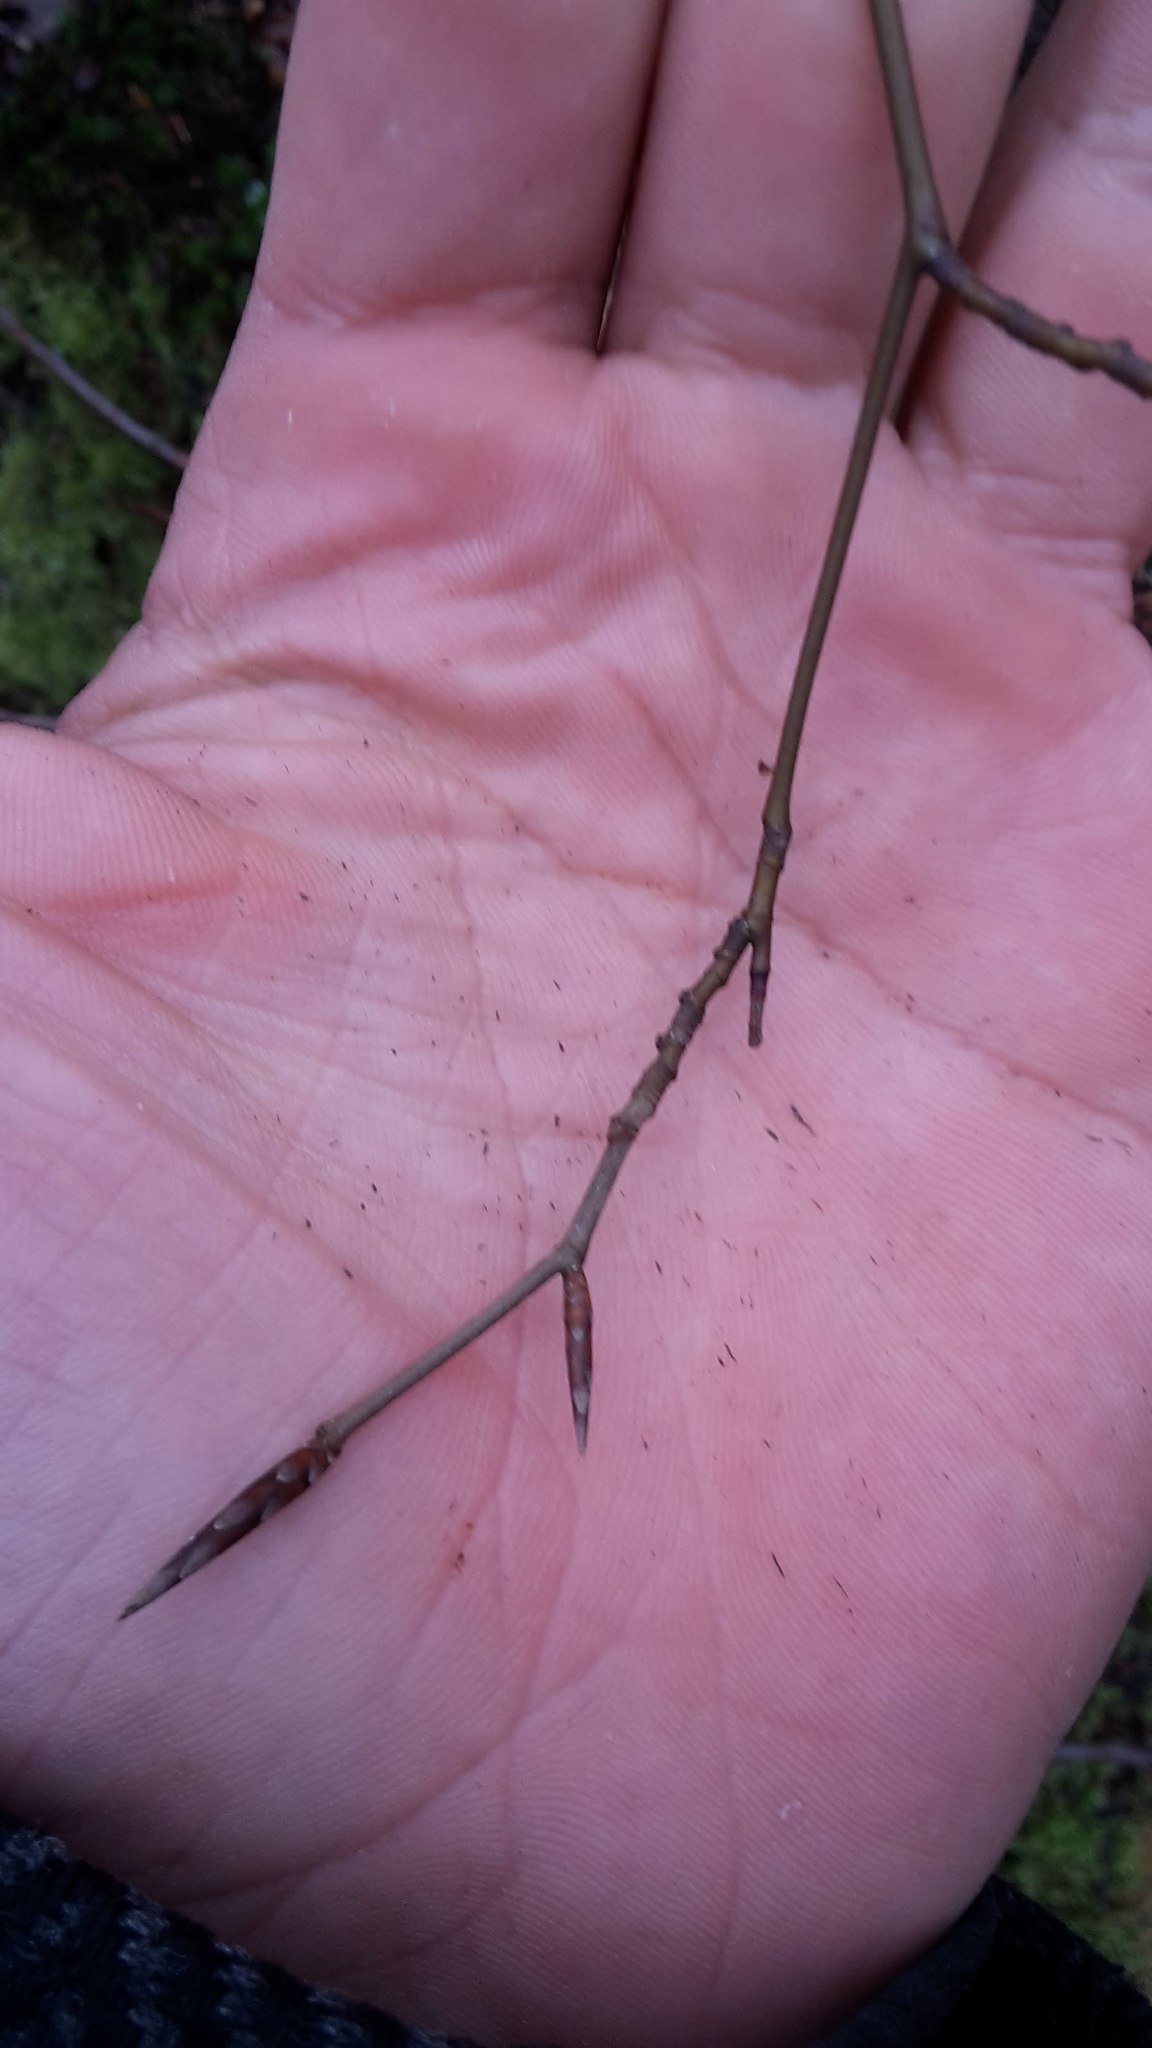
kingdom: Plantae
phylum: Tracheophyta
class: Magnoliopsida
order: Fagales
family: Fagaceae
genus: Fagus
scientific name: Fagus sylvatica
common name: Beech
